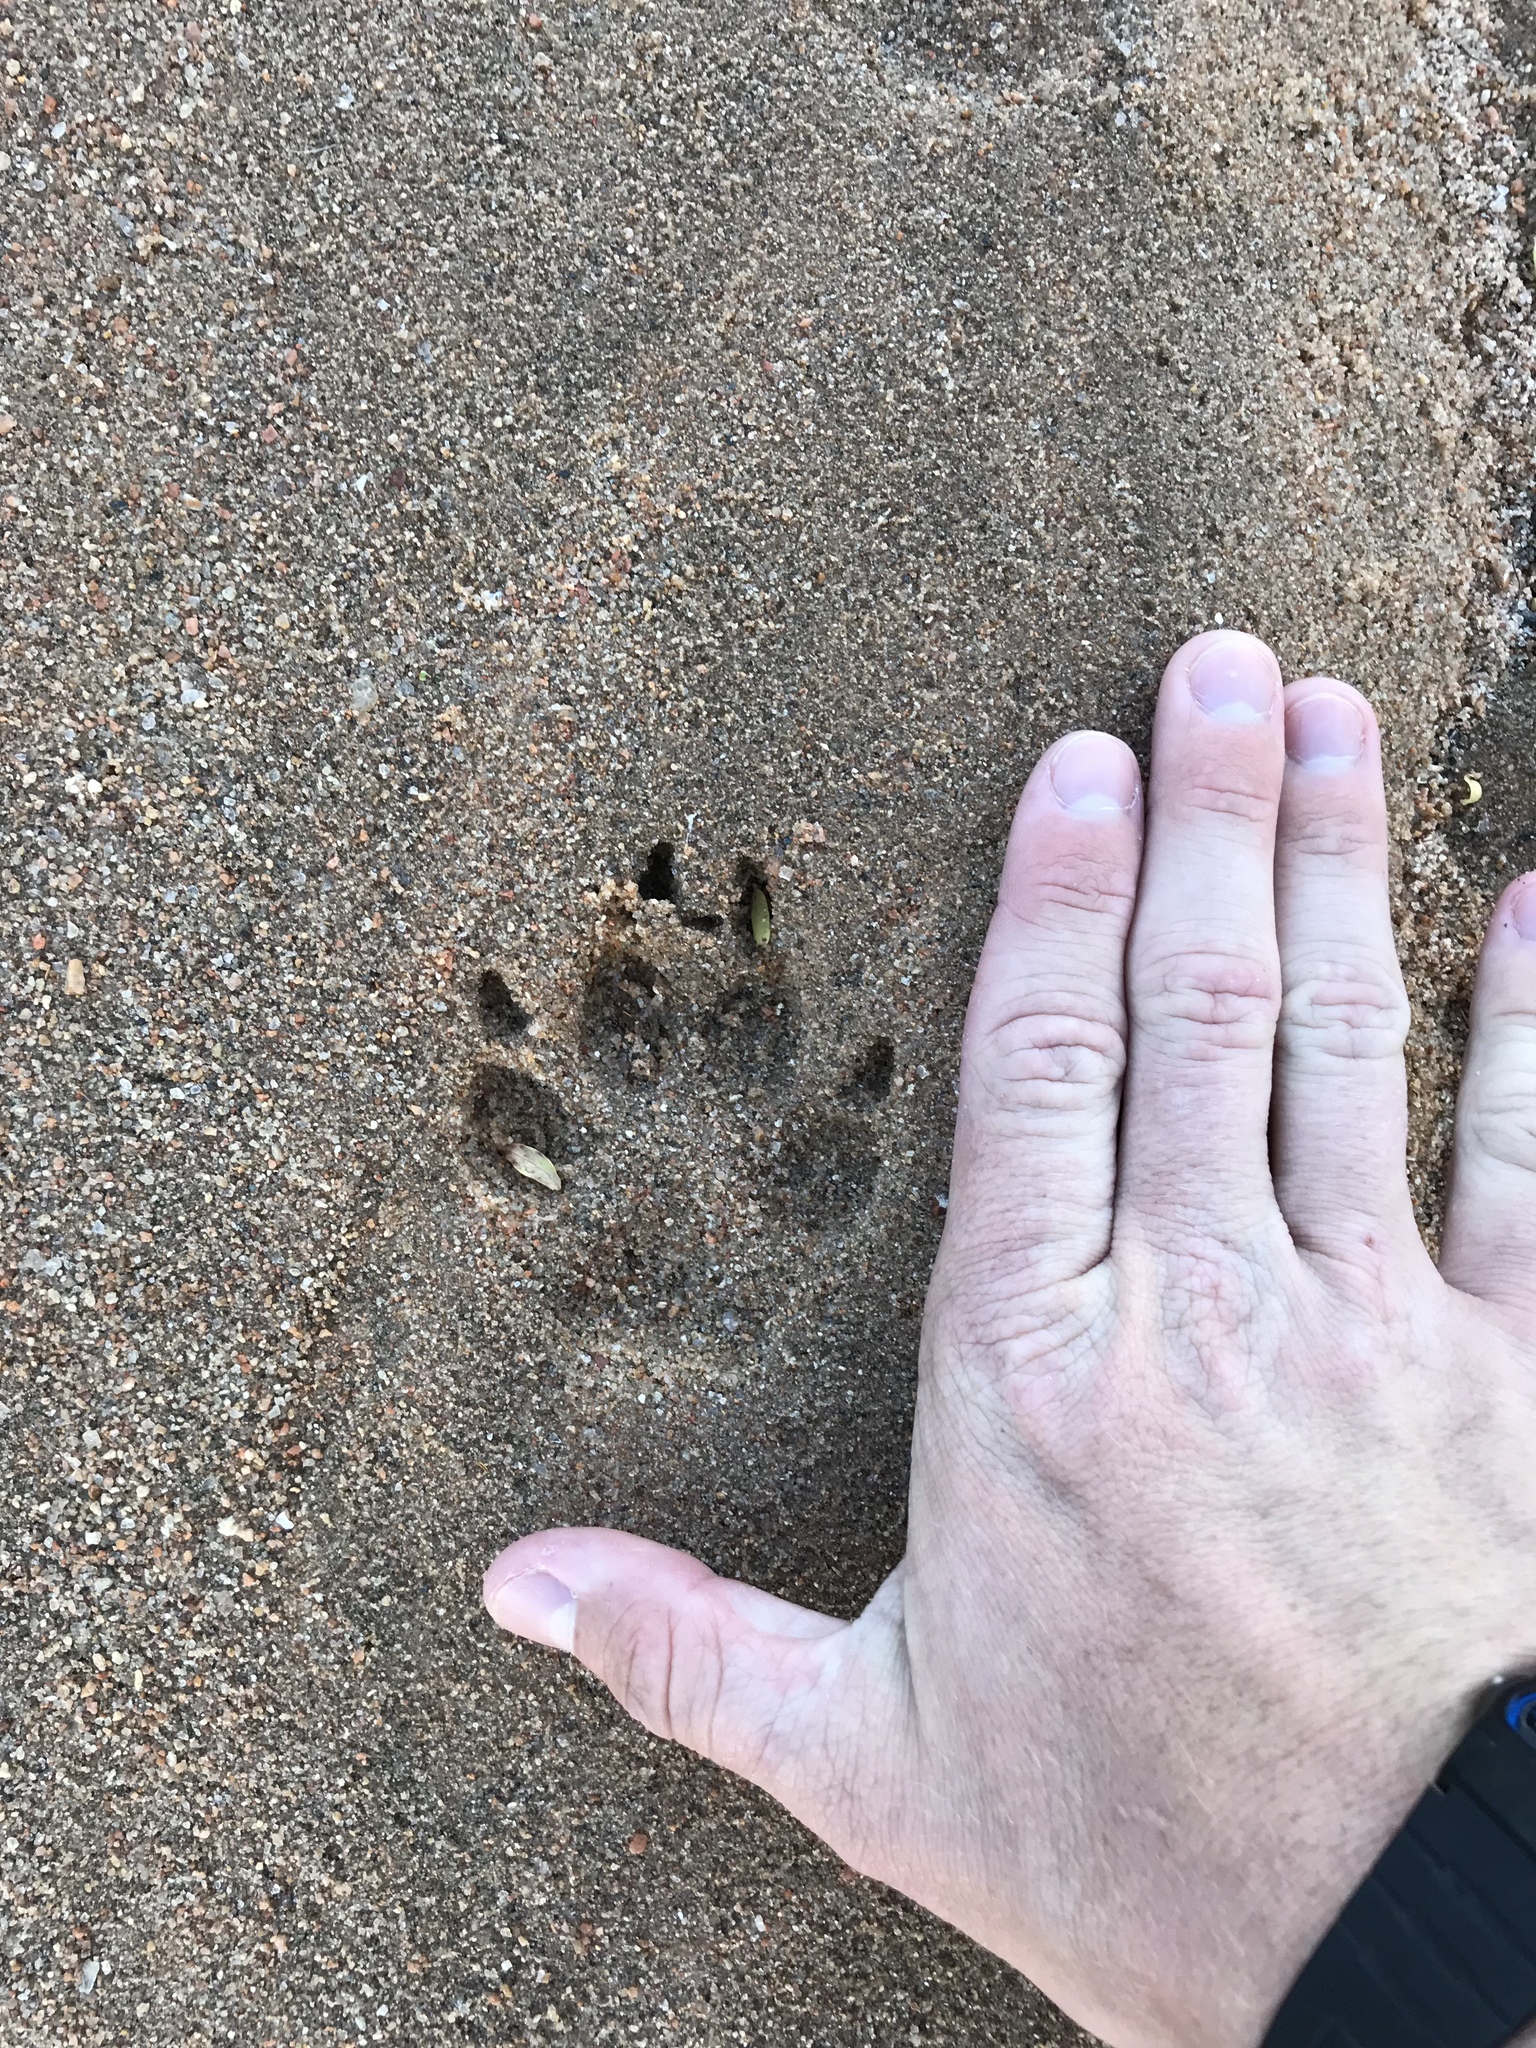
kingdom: Animalia
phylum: Chordata
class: Mammalia
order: Carnivora
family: Canidae
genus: Canis
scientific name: Canis lupus
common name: Gray wolf
